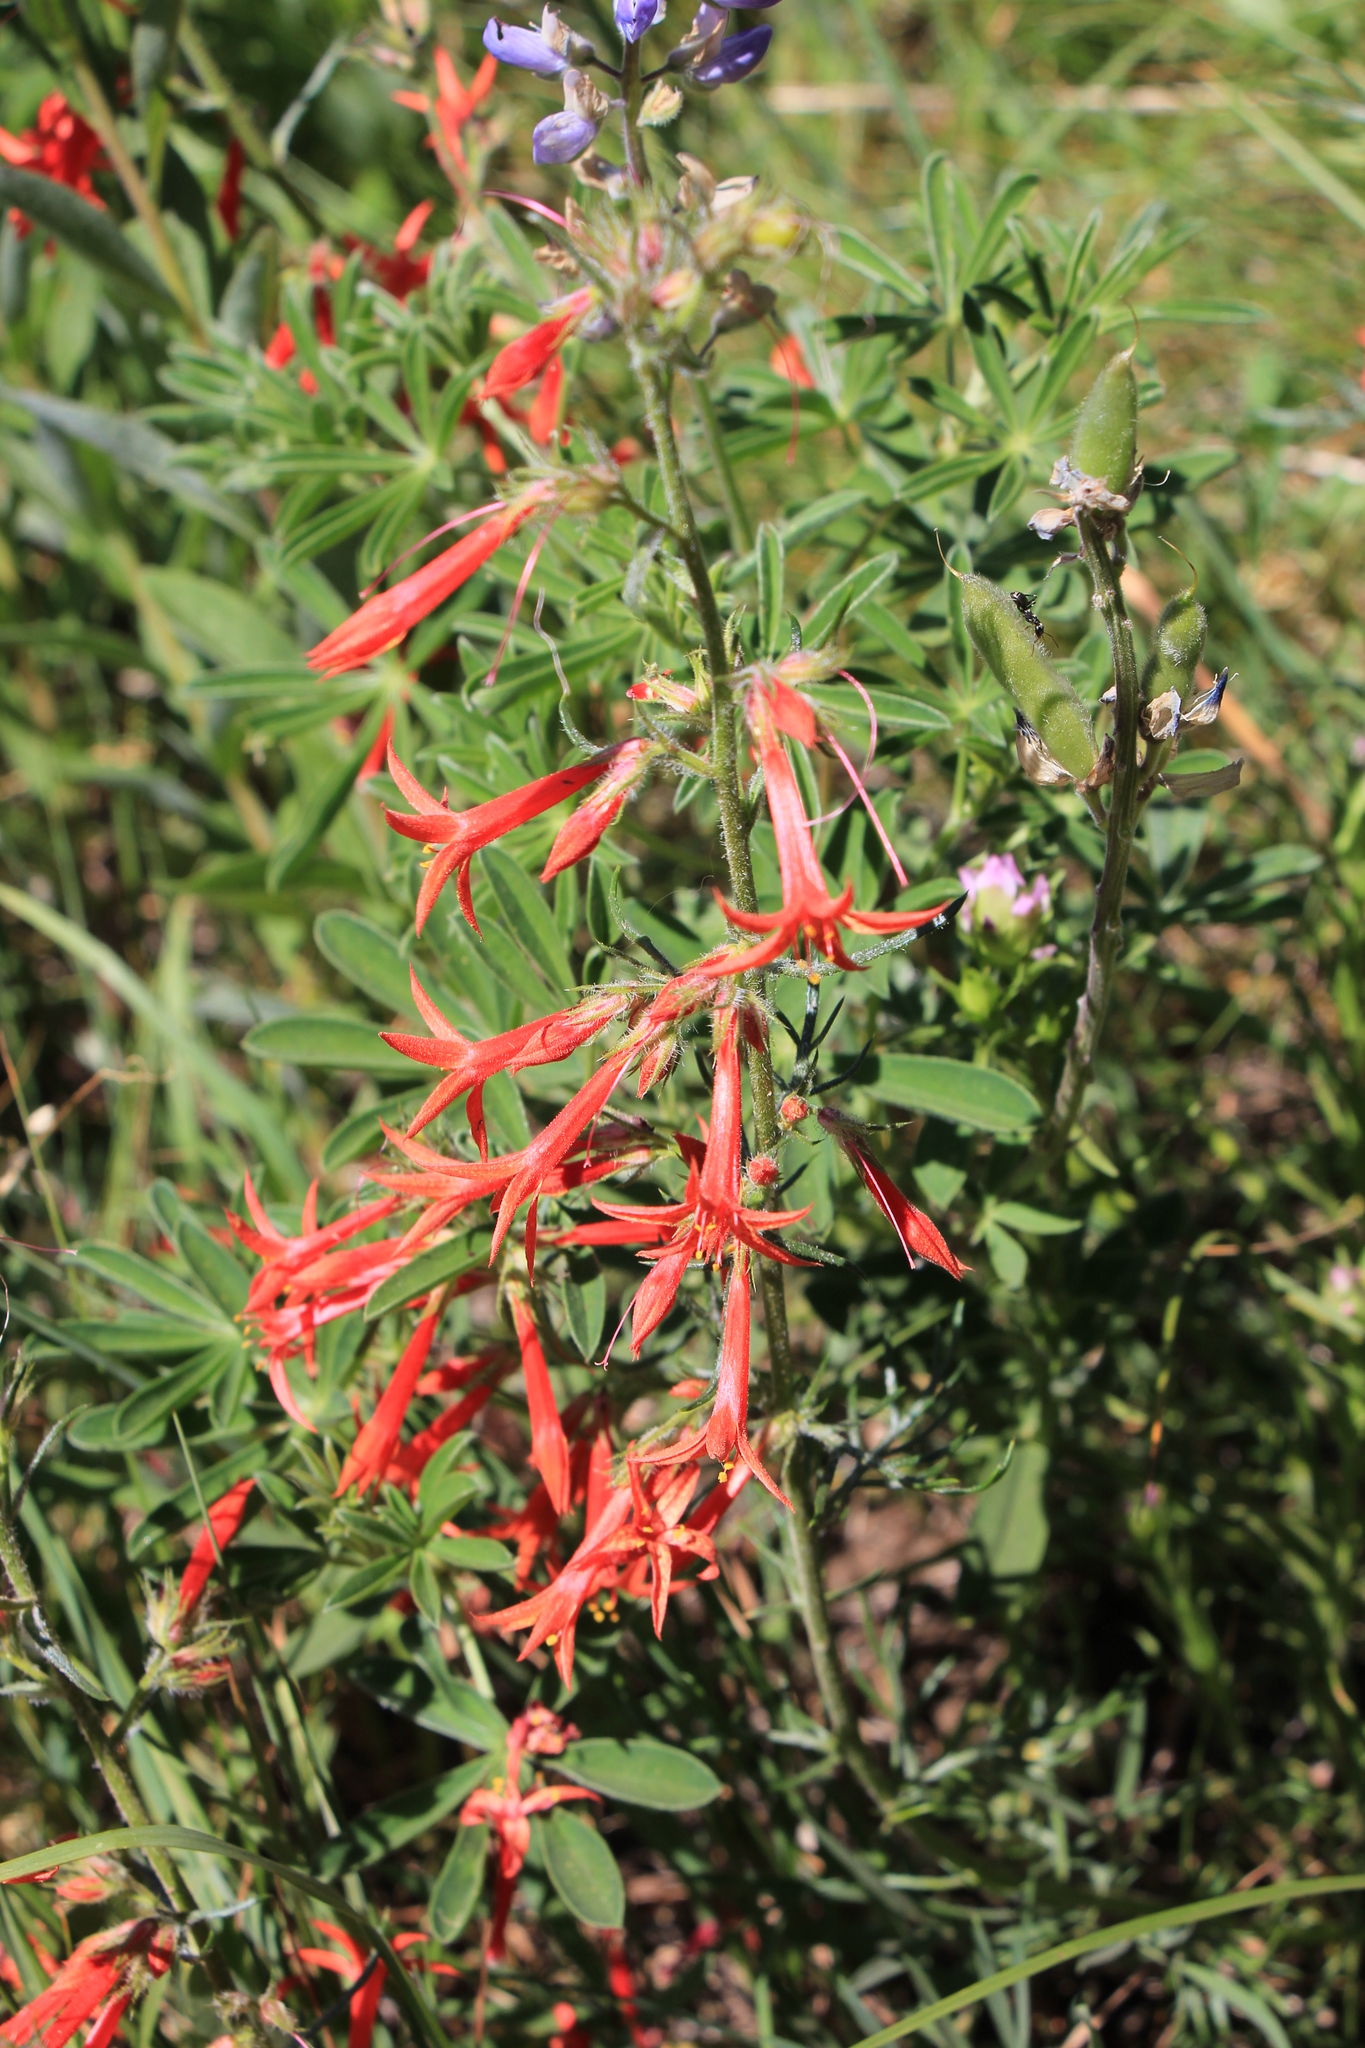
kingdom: Plantae
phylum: Tracheophyta
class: Magnoliopsida
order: Ericales
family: Polemoniaceae
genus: Ipomopsis
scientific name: Ipomopsis aggregata
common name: Scarlet gilia
